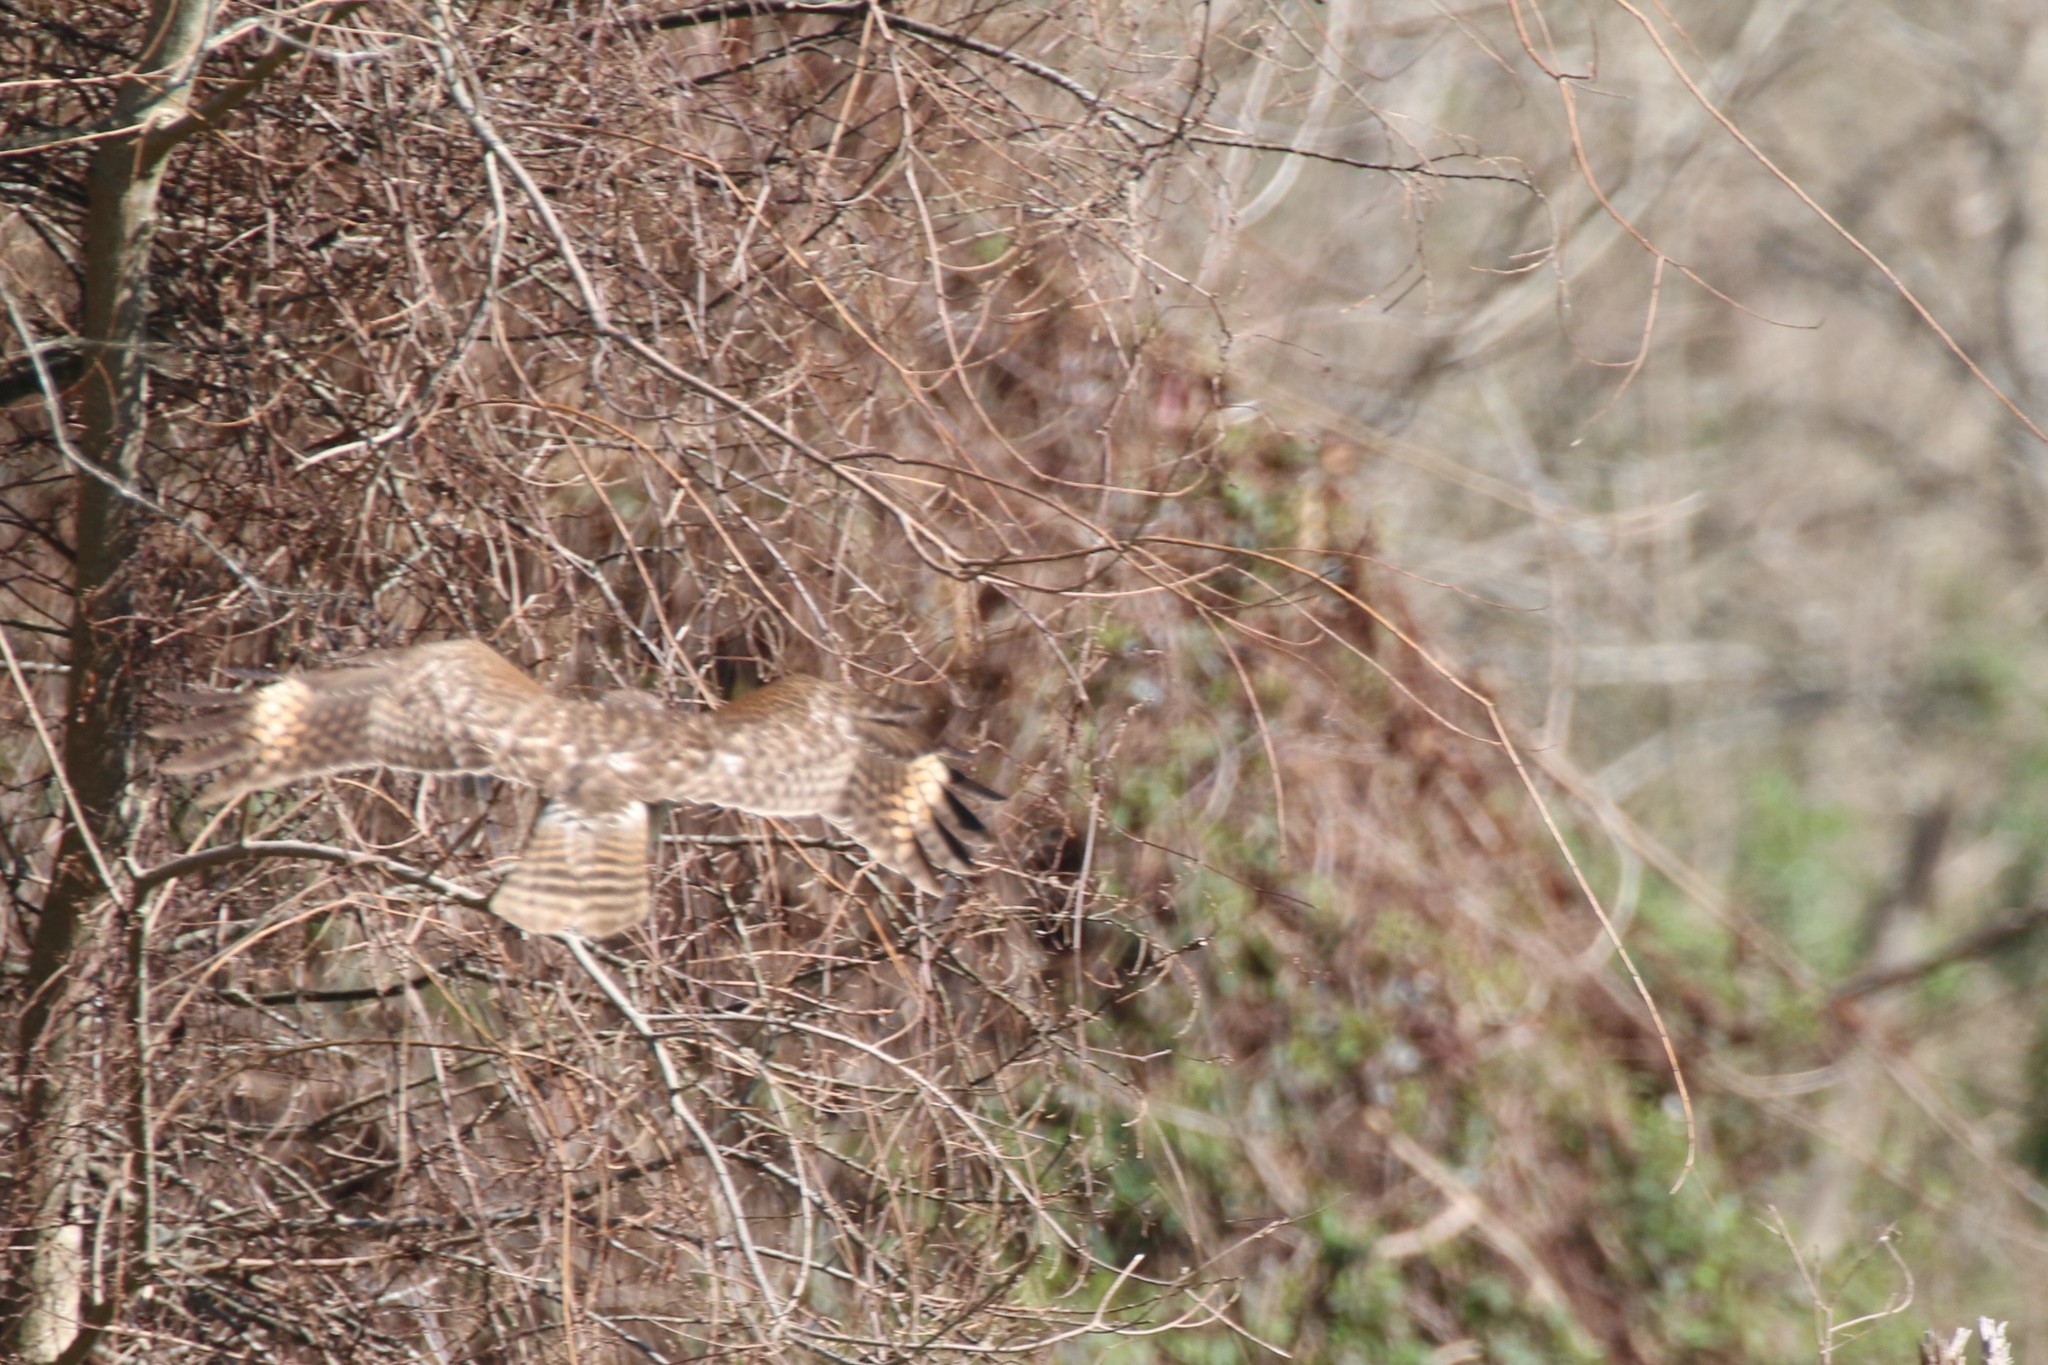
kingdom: Animalia
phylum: Chordata
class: Aves
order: Accipitriformes
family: Accipitridae
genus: Buteo
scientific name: Buteo lineatus
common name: Red-shouldered hawk
